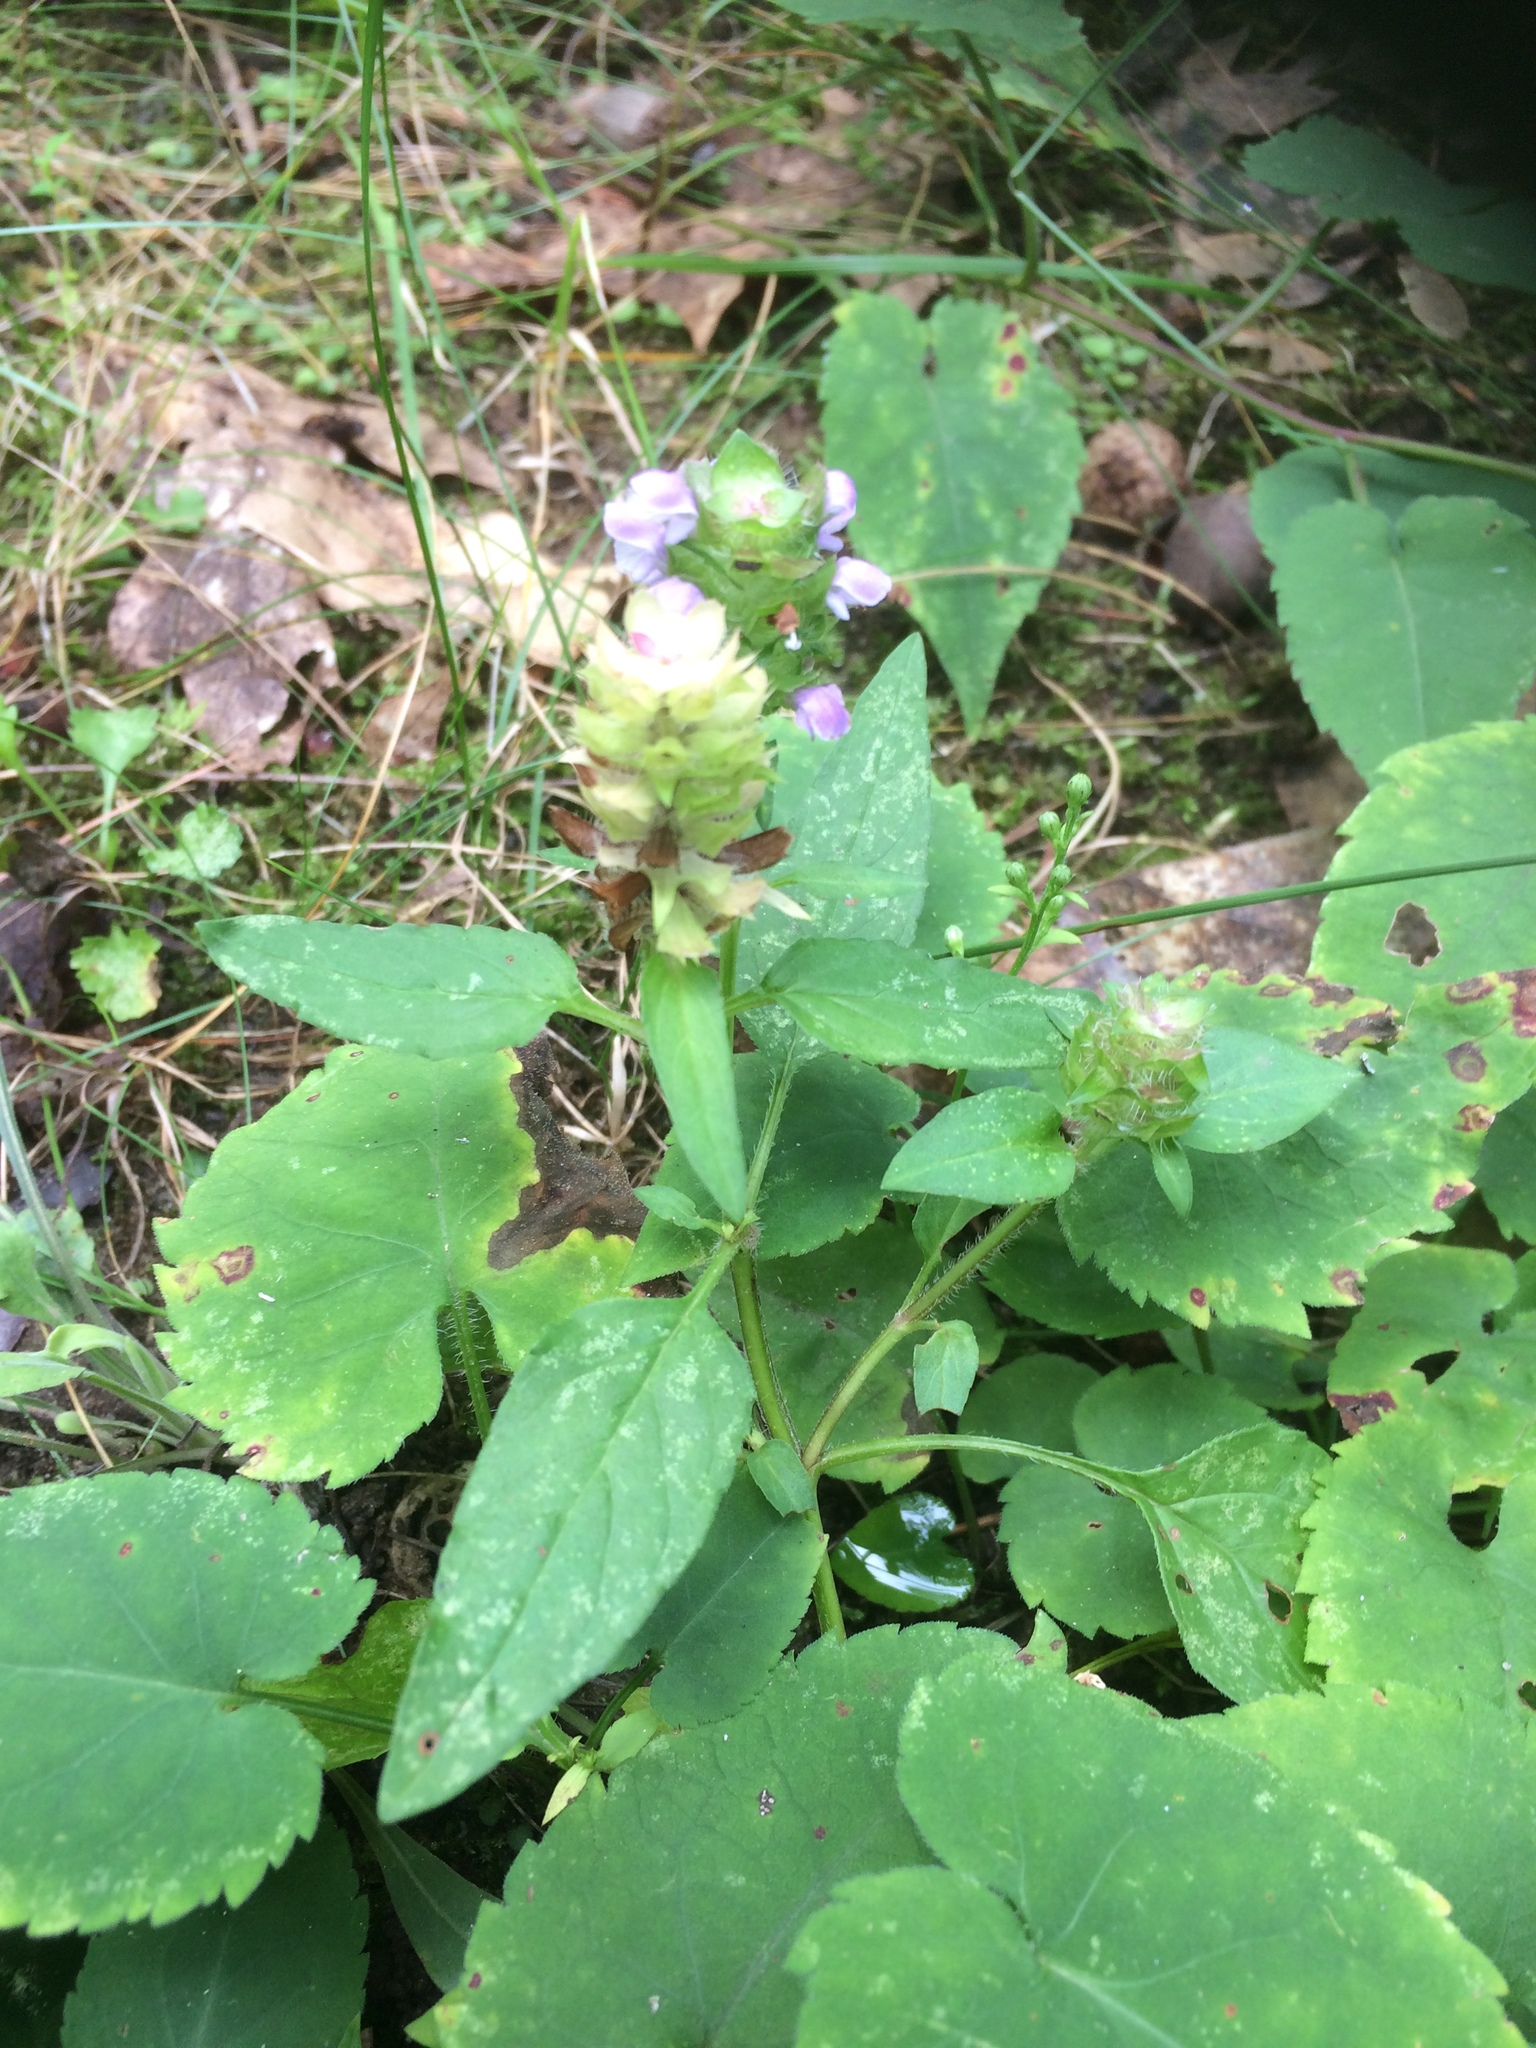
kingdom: Plantae
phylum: Tracheophyta
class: Magnoliopsida
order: Lamiales
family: Lamiaceae
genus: Prunella
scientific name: Prunella vulgaris
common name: Heal-all
